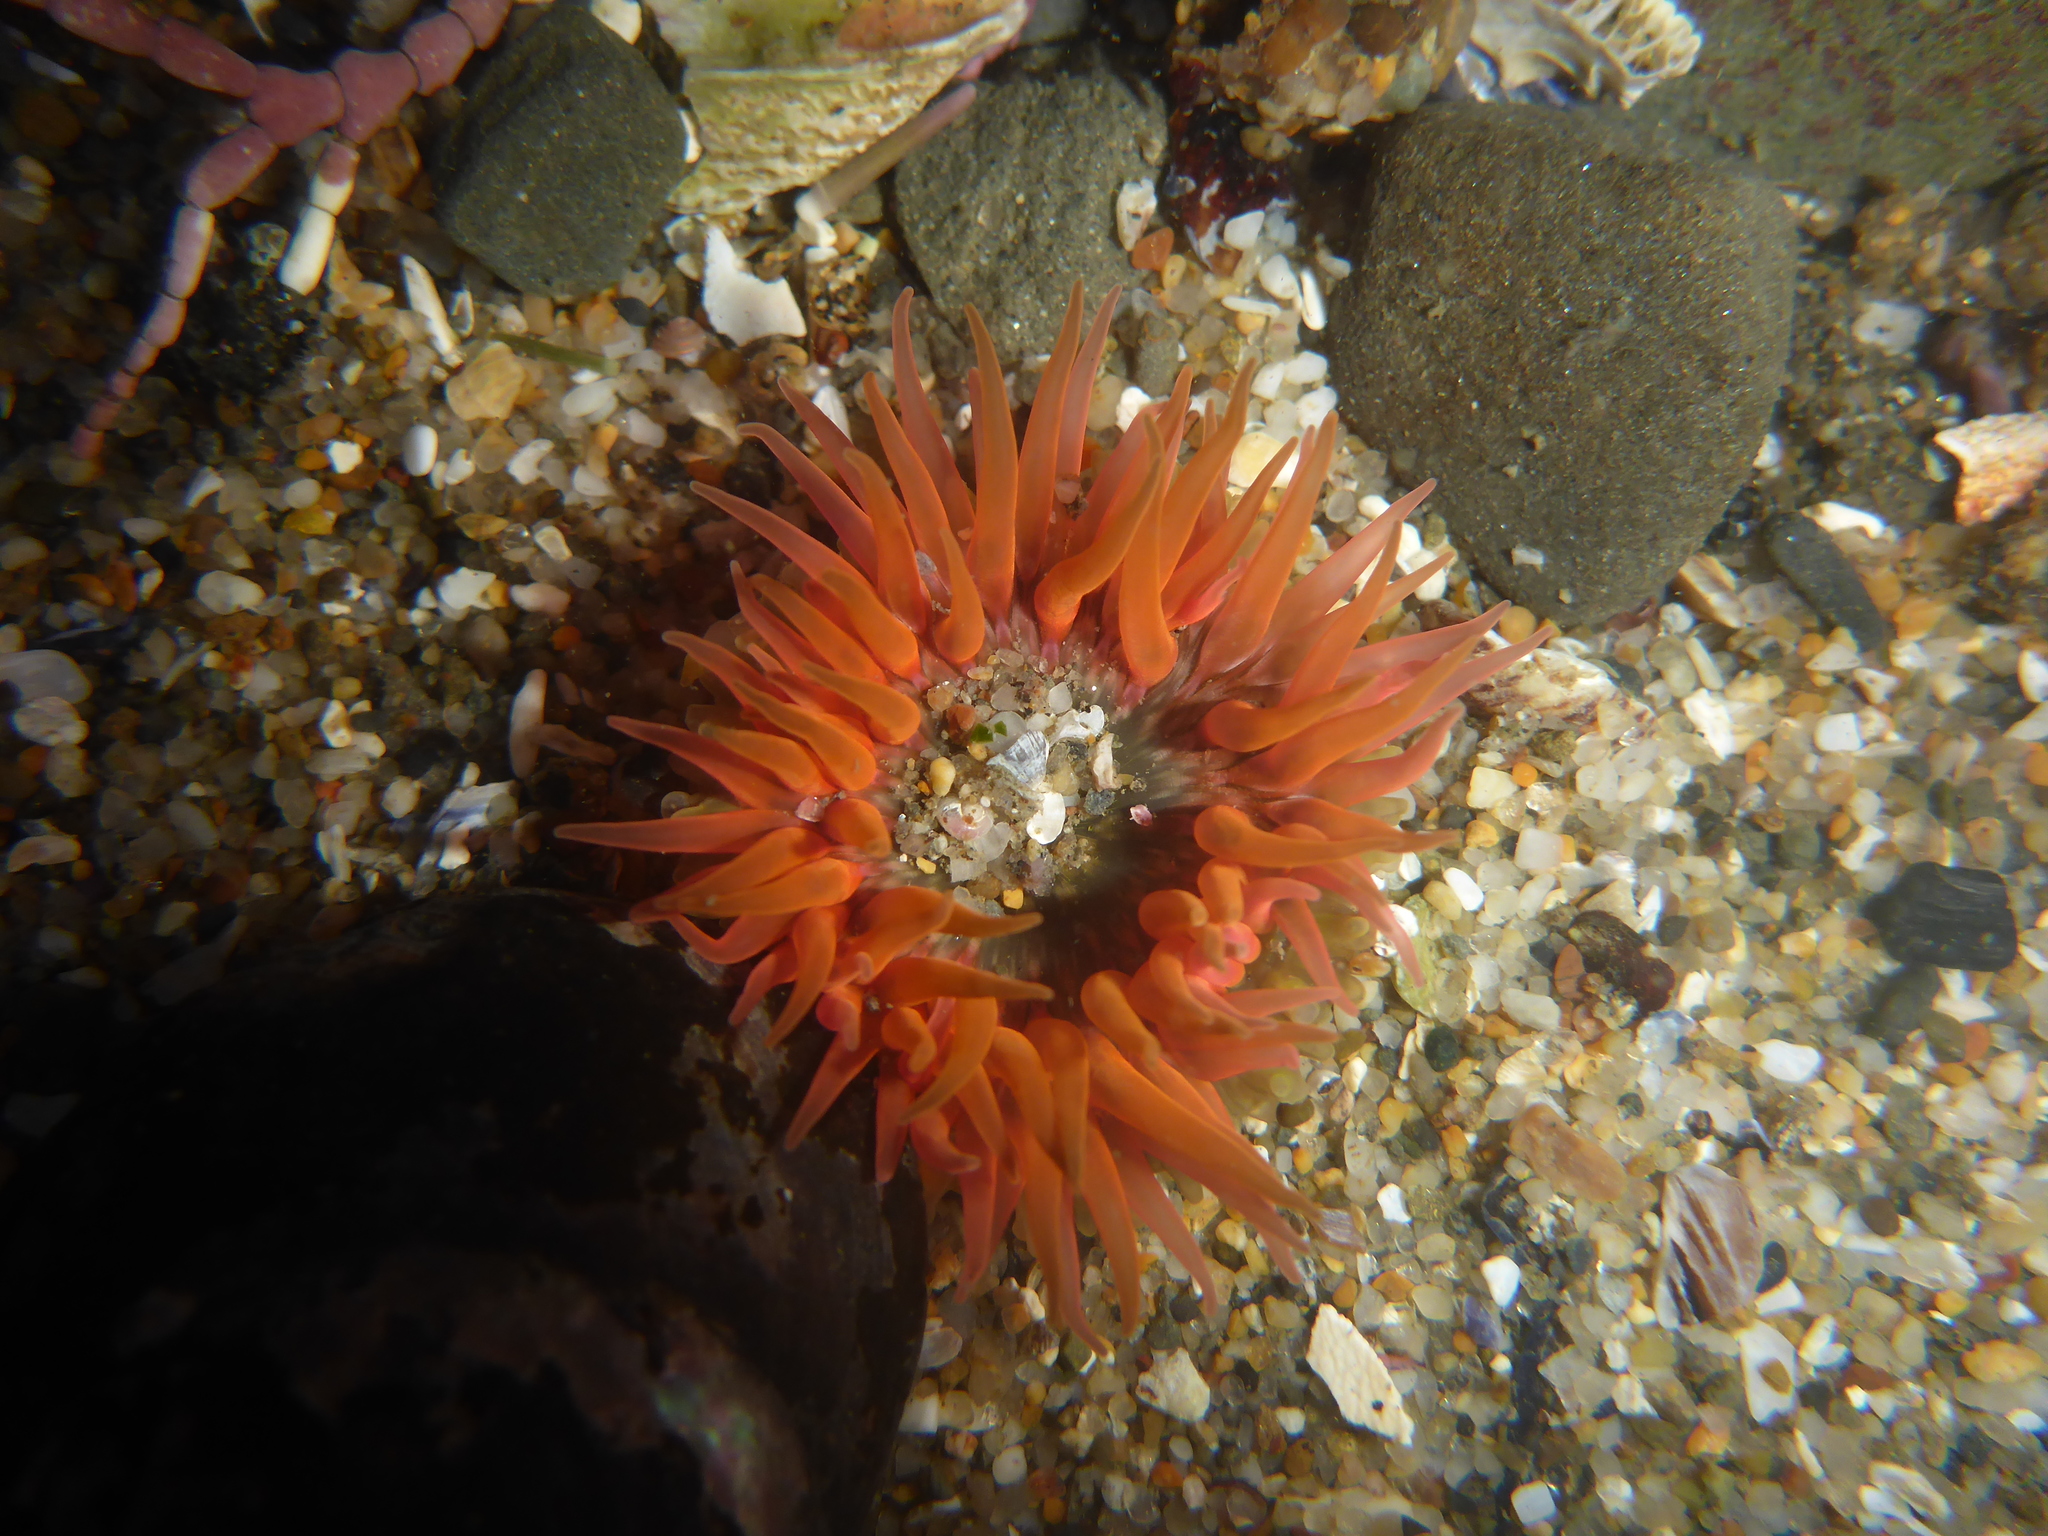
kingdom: Animalia
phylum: Cnidaria
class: Anthozoa
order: Actiniaria
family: Actiniidae
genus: Anthopleura
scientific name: Anthopleura artemisia
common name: Buried sea anemone
